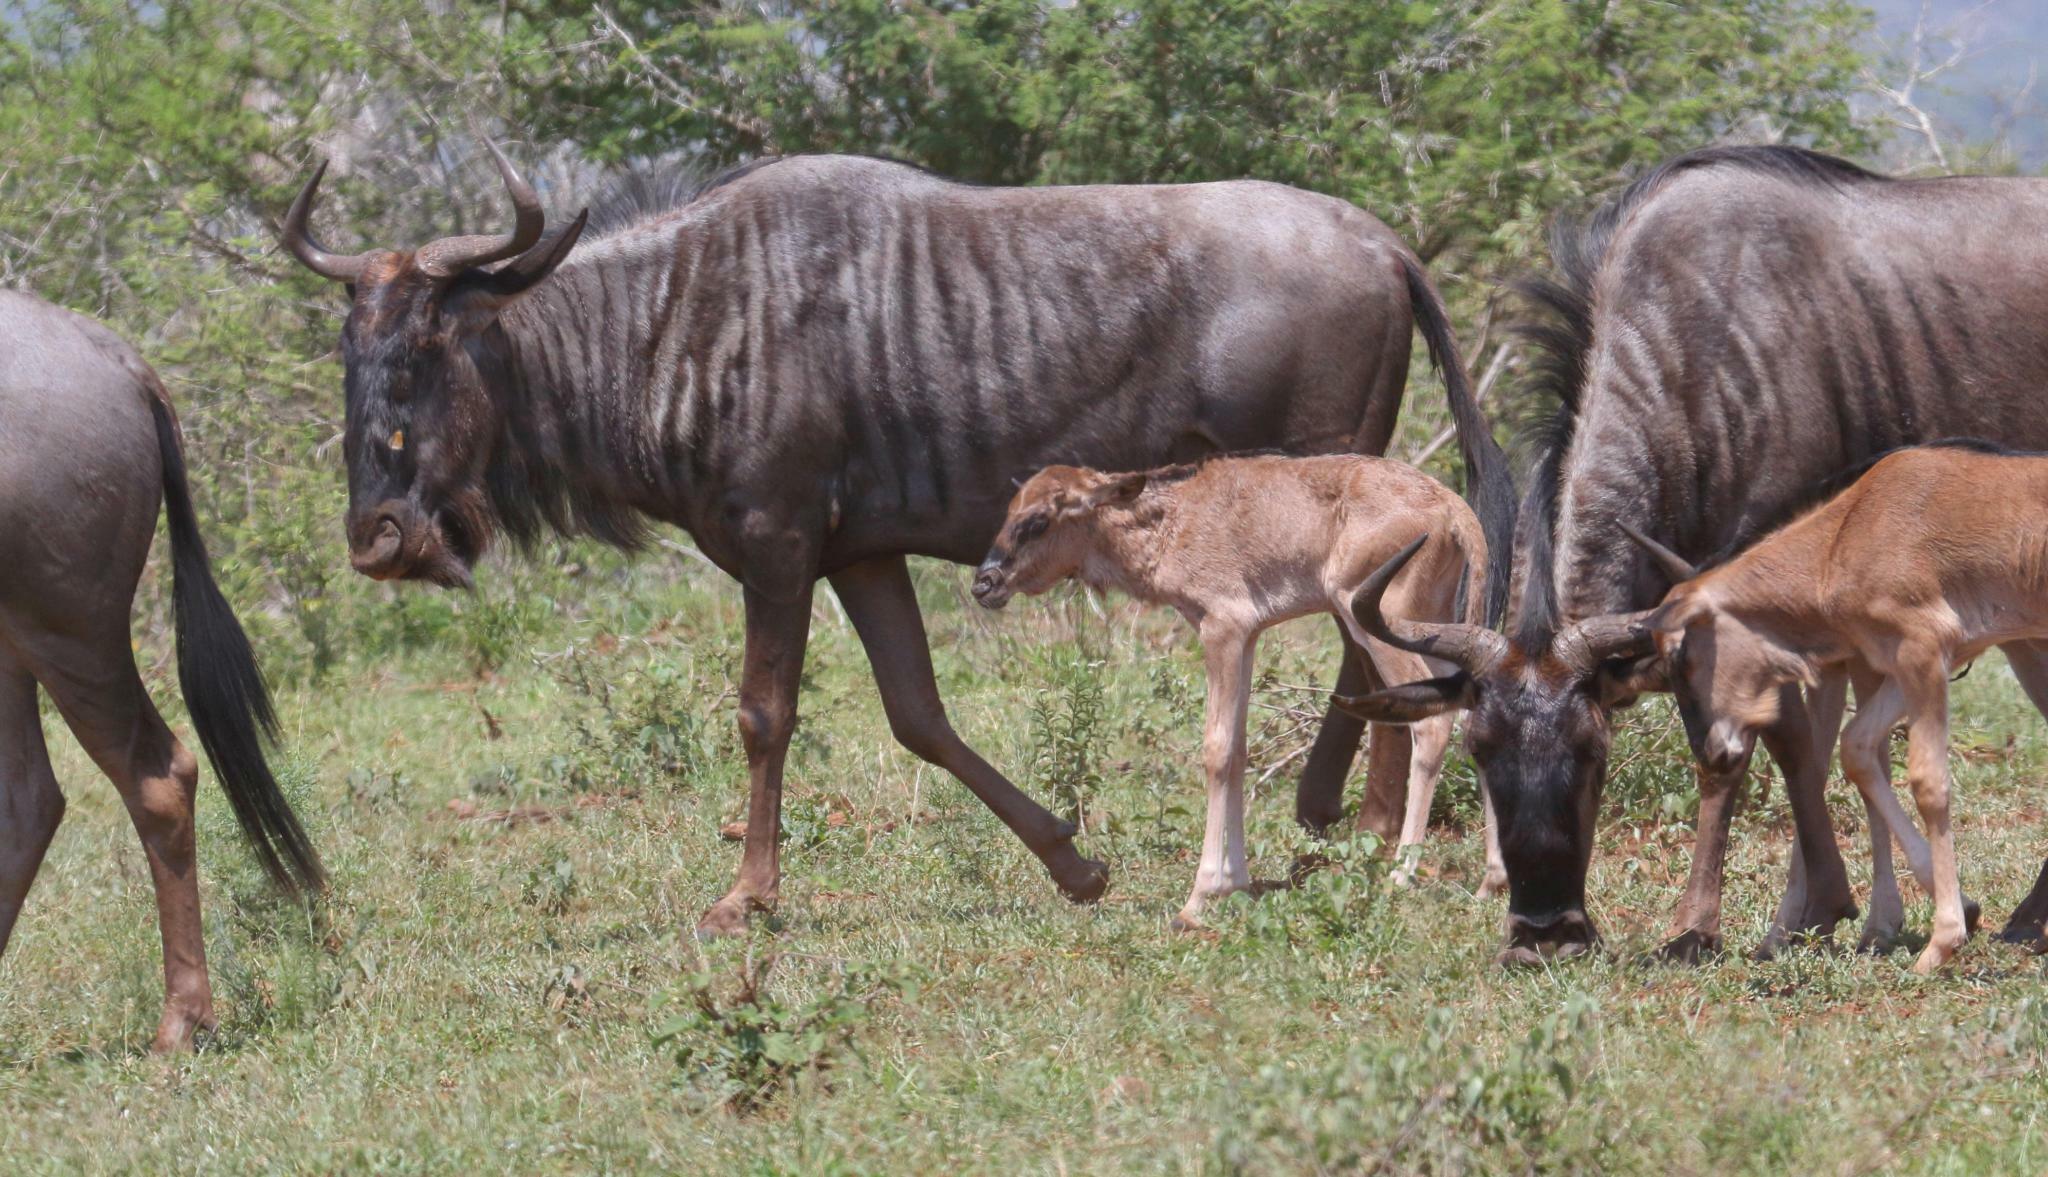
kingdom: Animalia
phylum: Chordata
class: Mammalia
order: Artiodactyla
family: Bovidae
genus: Connochaetes
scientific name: Connochaetes taurinus
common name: Blue wildebeest
